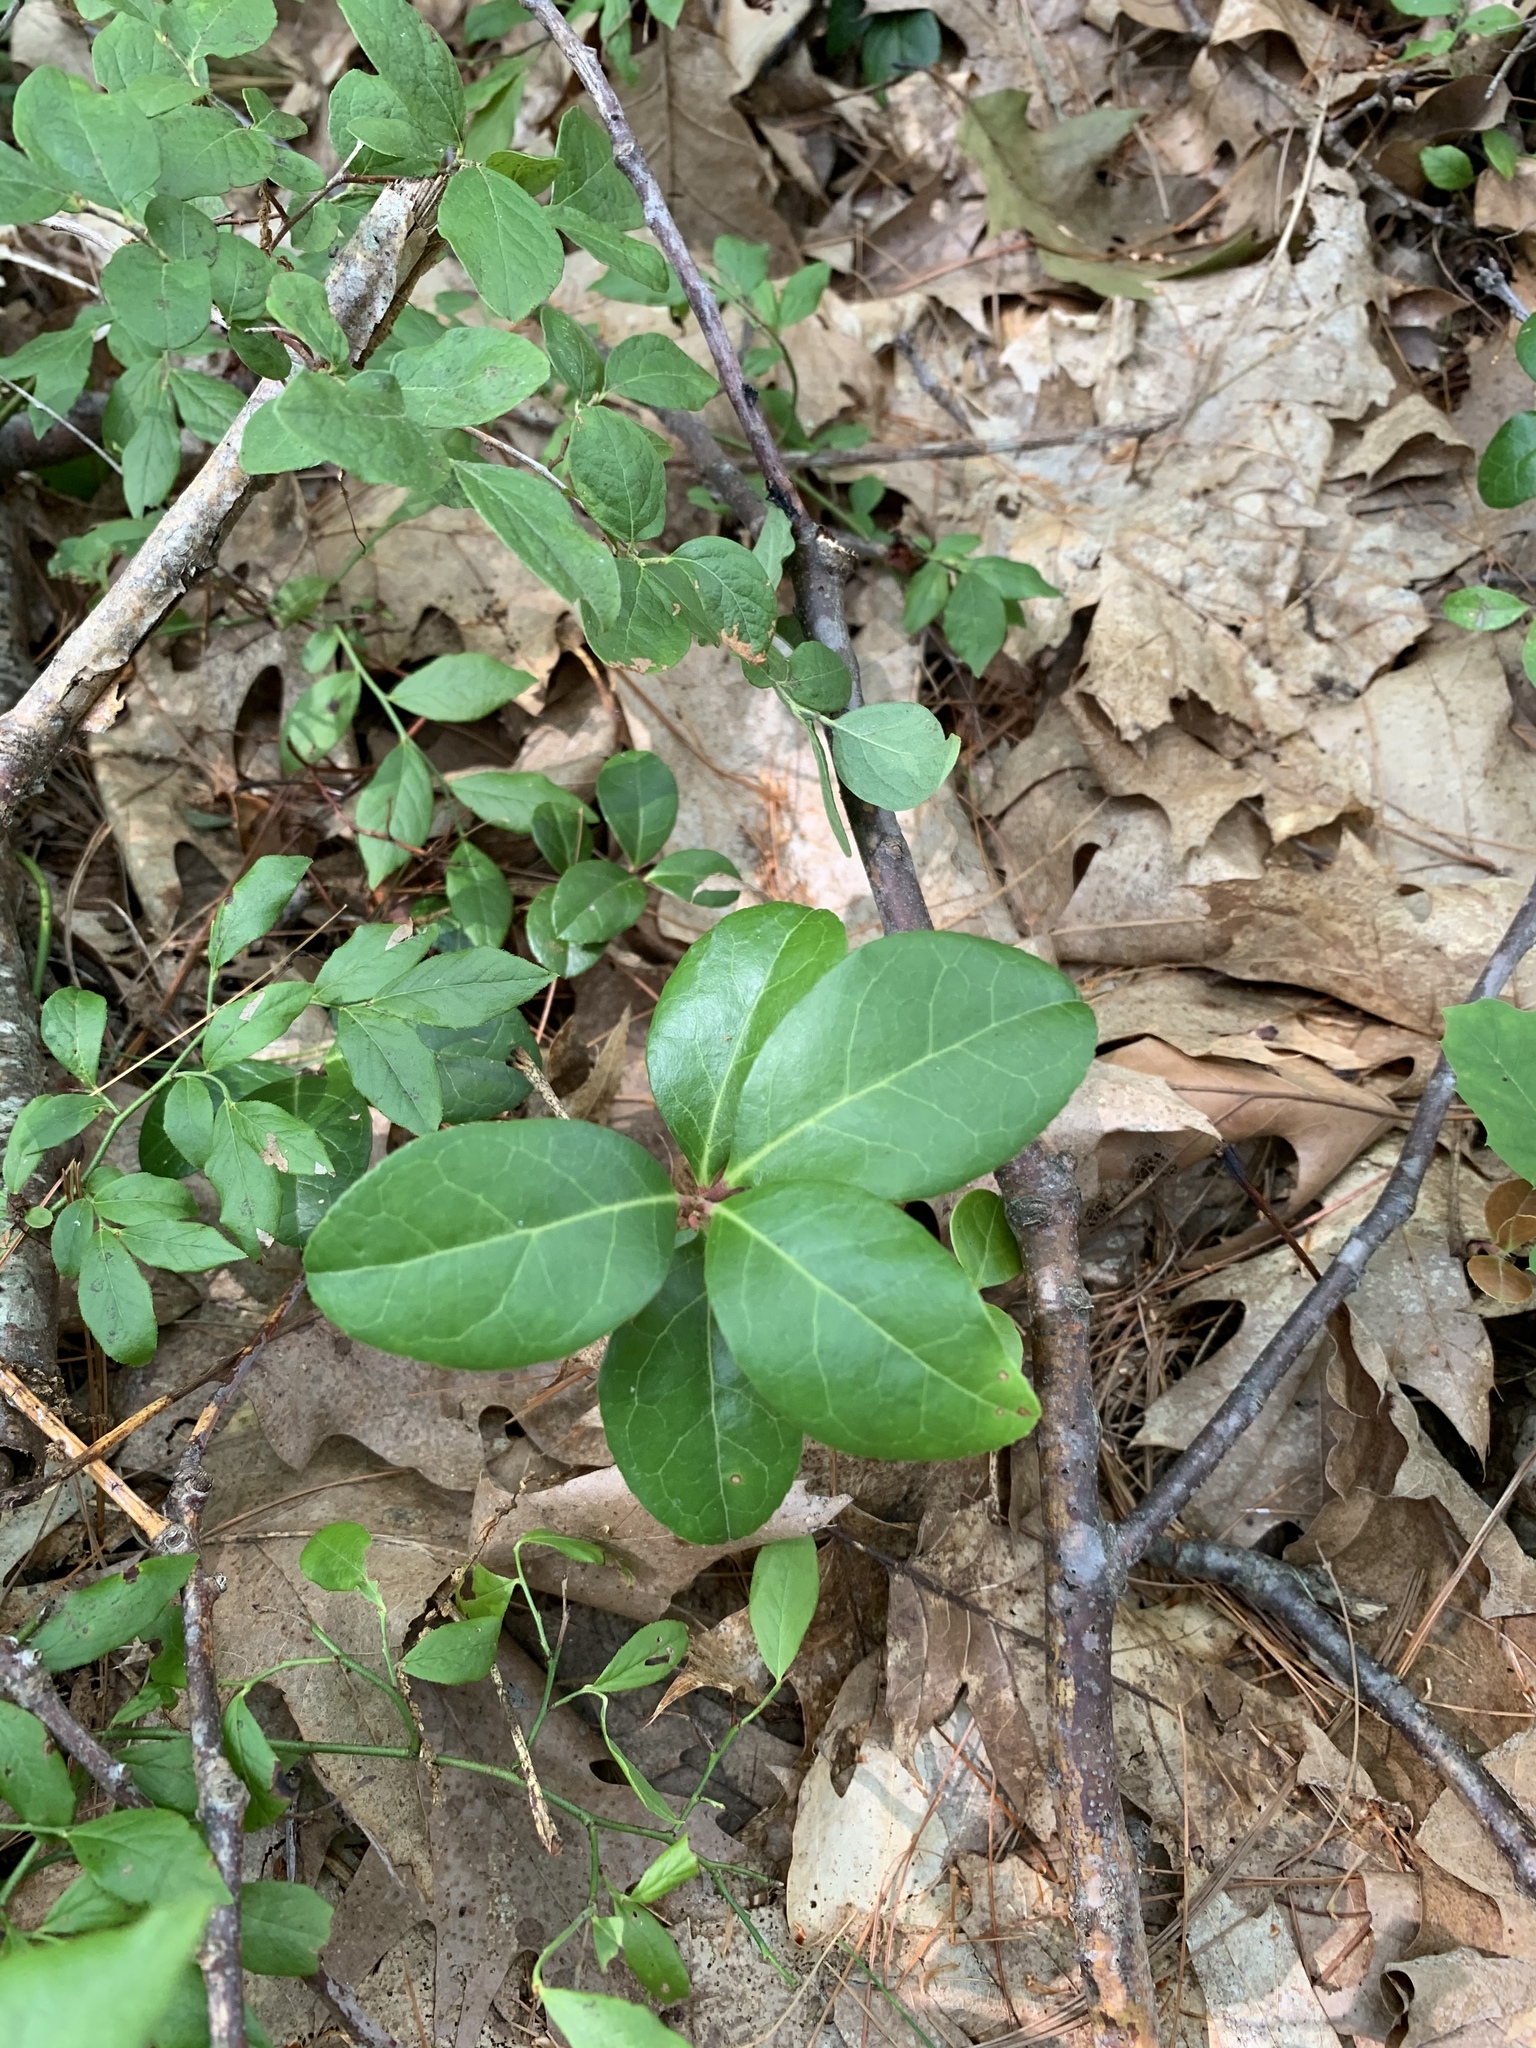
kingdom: Plantae
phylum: Tracheophyta
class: Magnoliopsida
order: Ericales
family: Ericaceae
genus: Gaultheria
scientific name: Gaultheria procumbens
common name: Checkerberry
